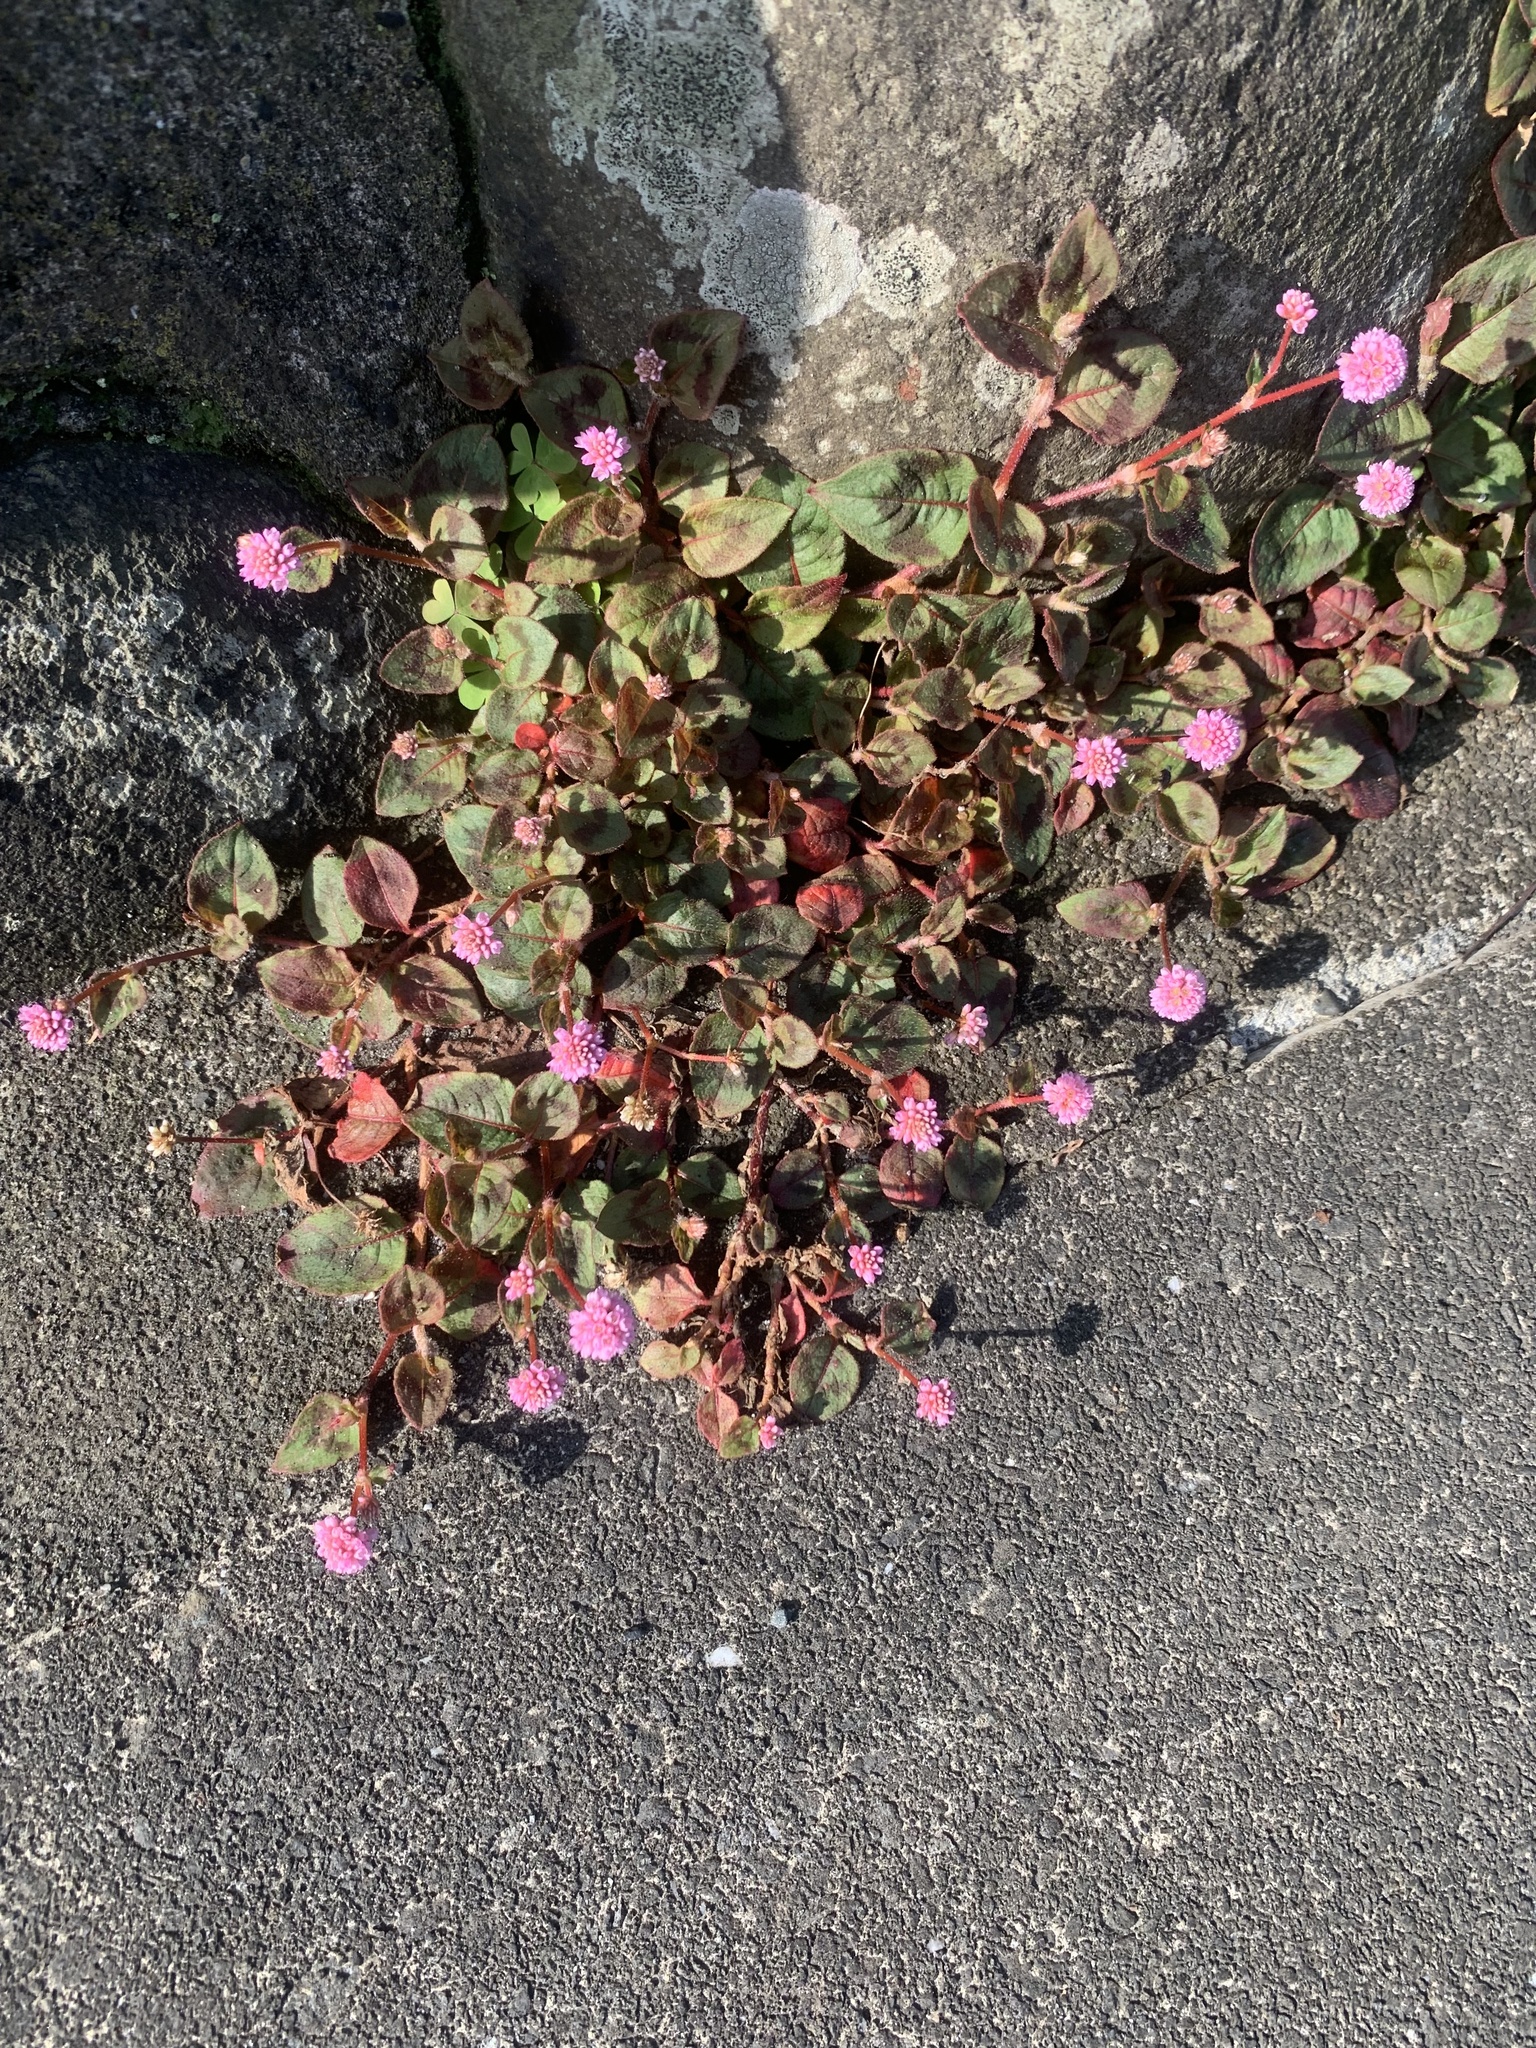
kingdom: Plantae
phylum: Tracheophyta
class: Magnoliopsida
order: Caryophyllales
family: Polygonaceae
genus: Persicaria
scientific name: Persicaria capitata
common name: Pinkhead smartweed
